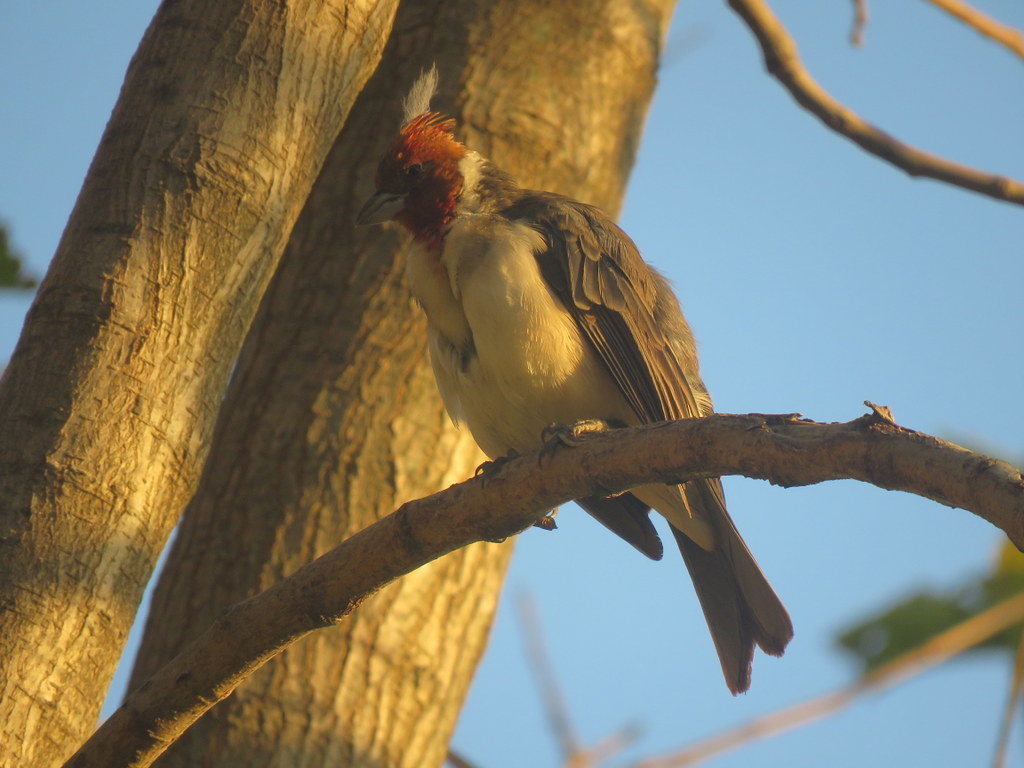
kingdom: Animalia
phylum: Chordata
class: Aves
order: Passeriformes
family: Thraupidae
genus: Paroaria
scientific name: Paroaria coronata
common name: Red-crested cardinal
